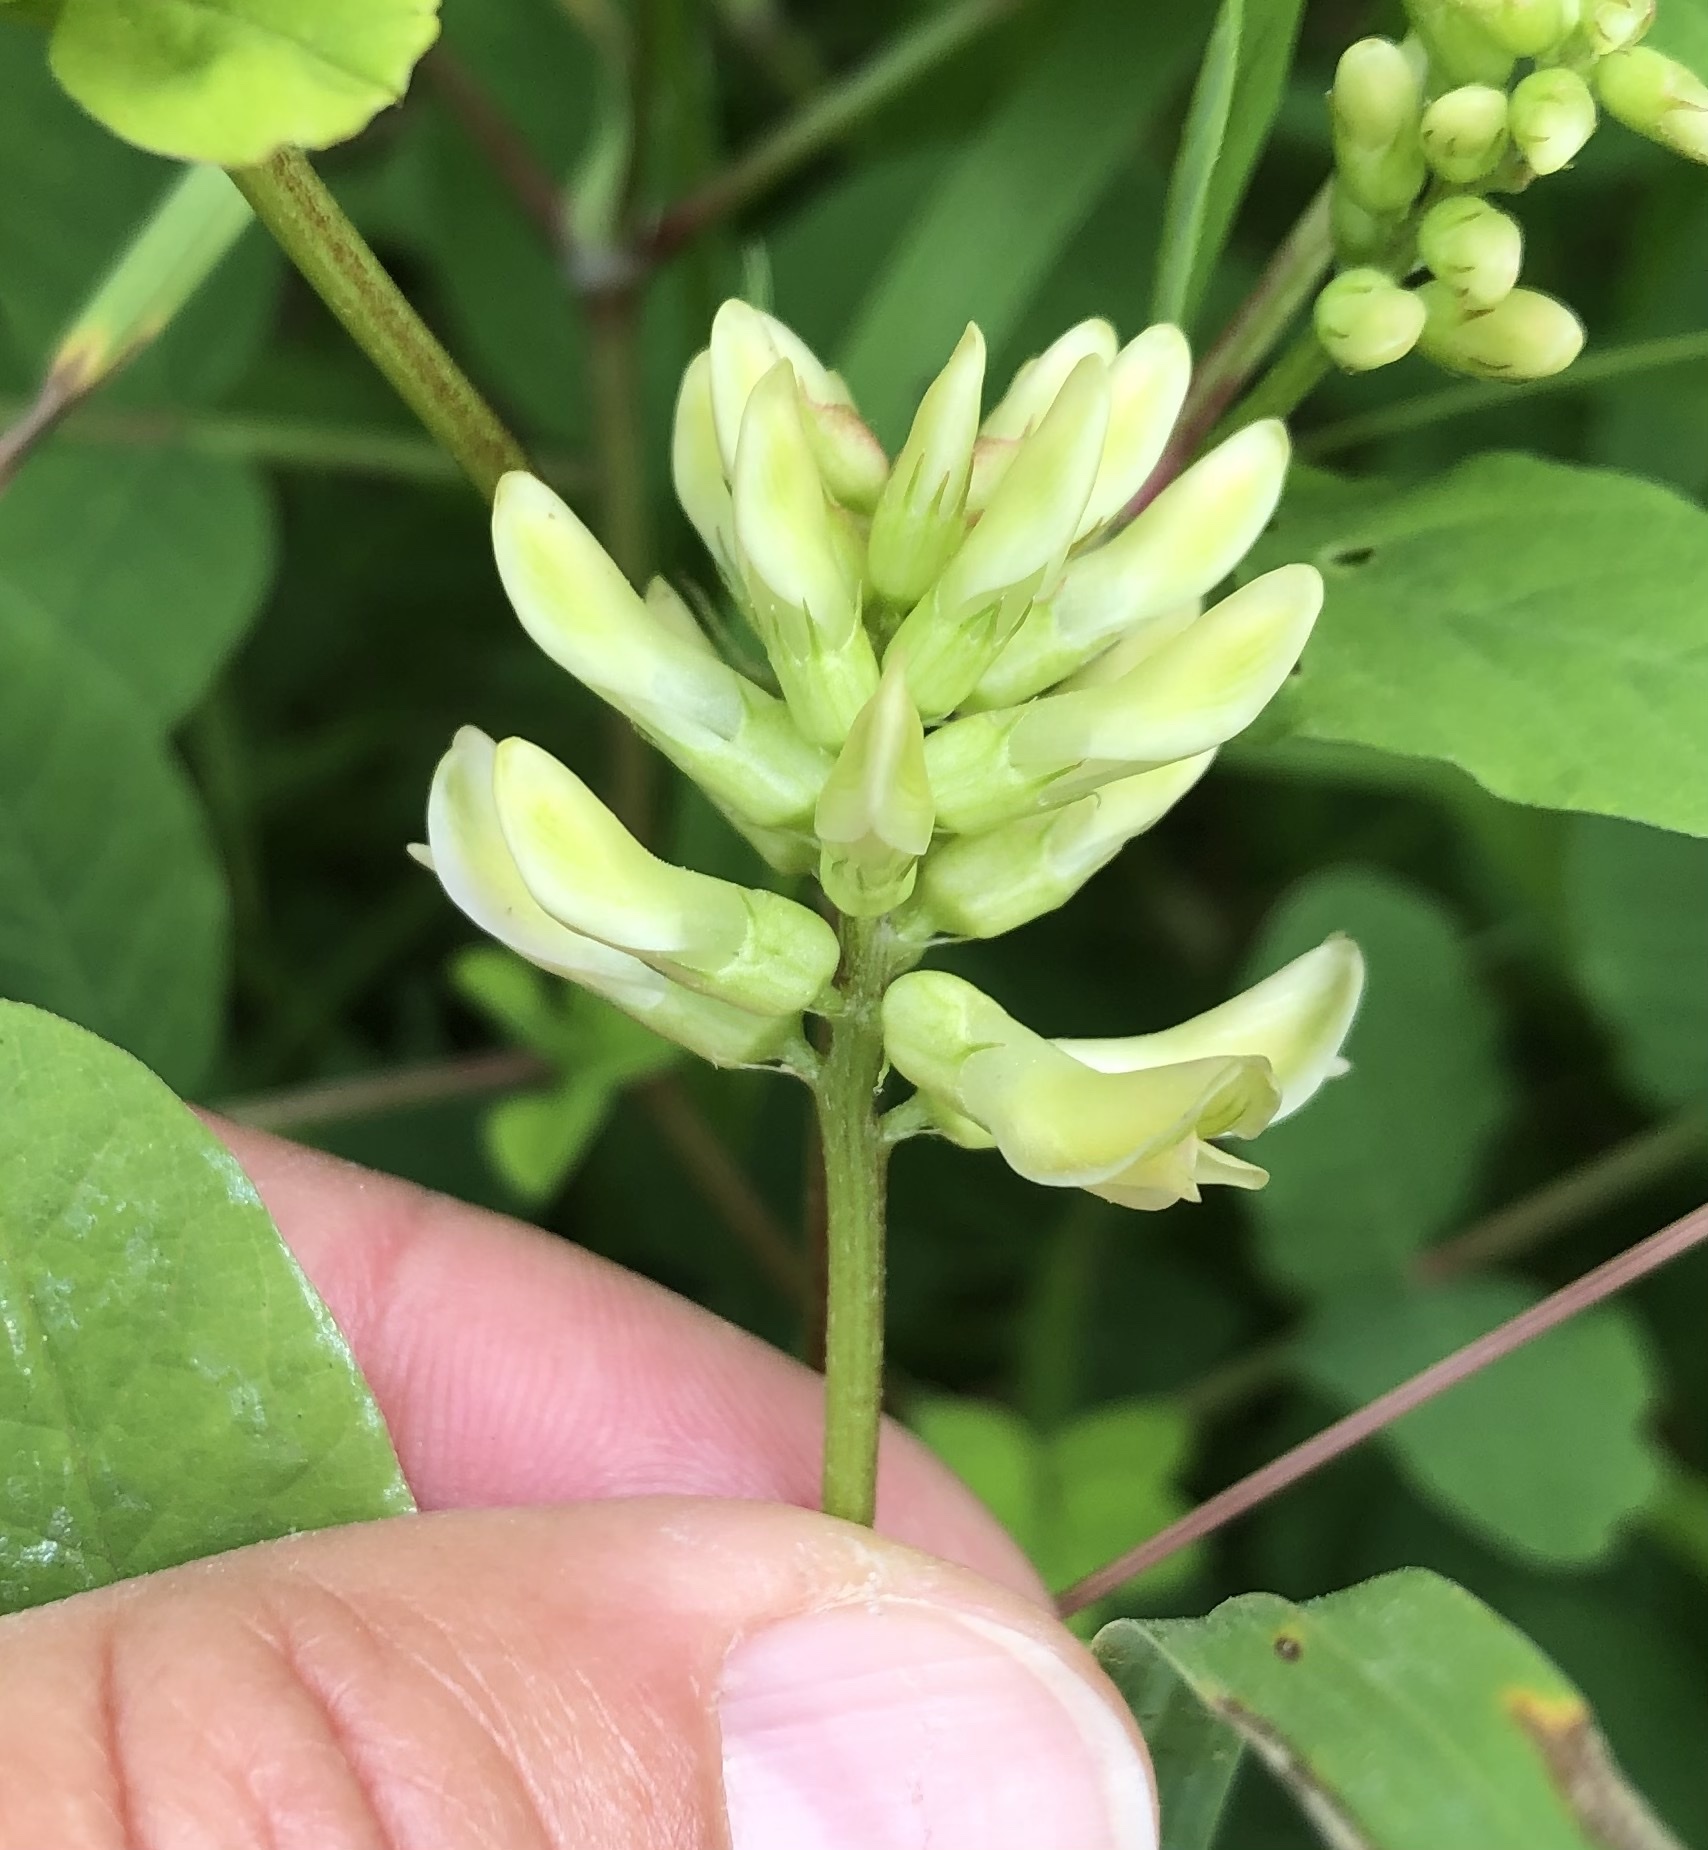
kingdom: Plantae
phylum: Tracheophyta
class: Magnoliopsida
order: Fabales
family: Fabaceae
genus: Astragalus
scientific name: Astragalus glycyphyllos
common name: Wild liquorice
